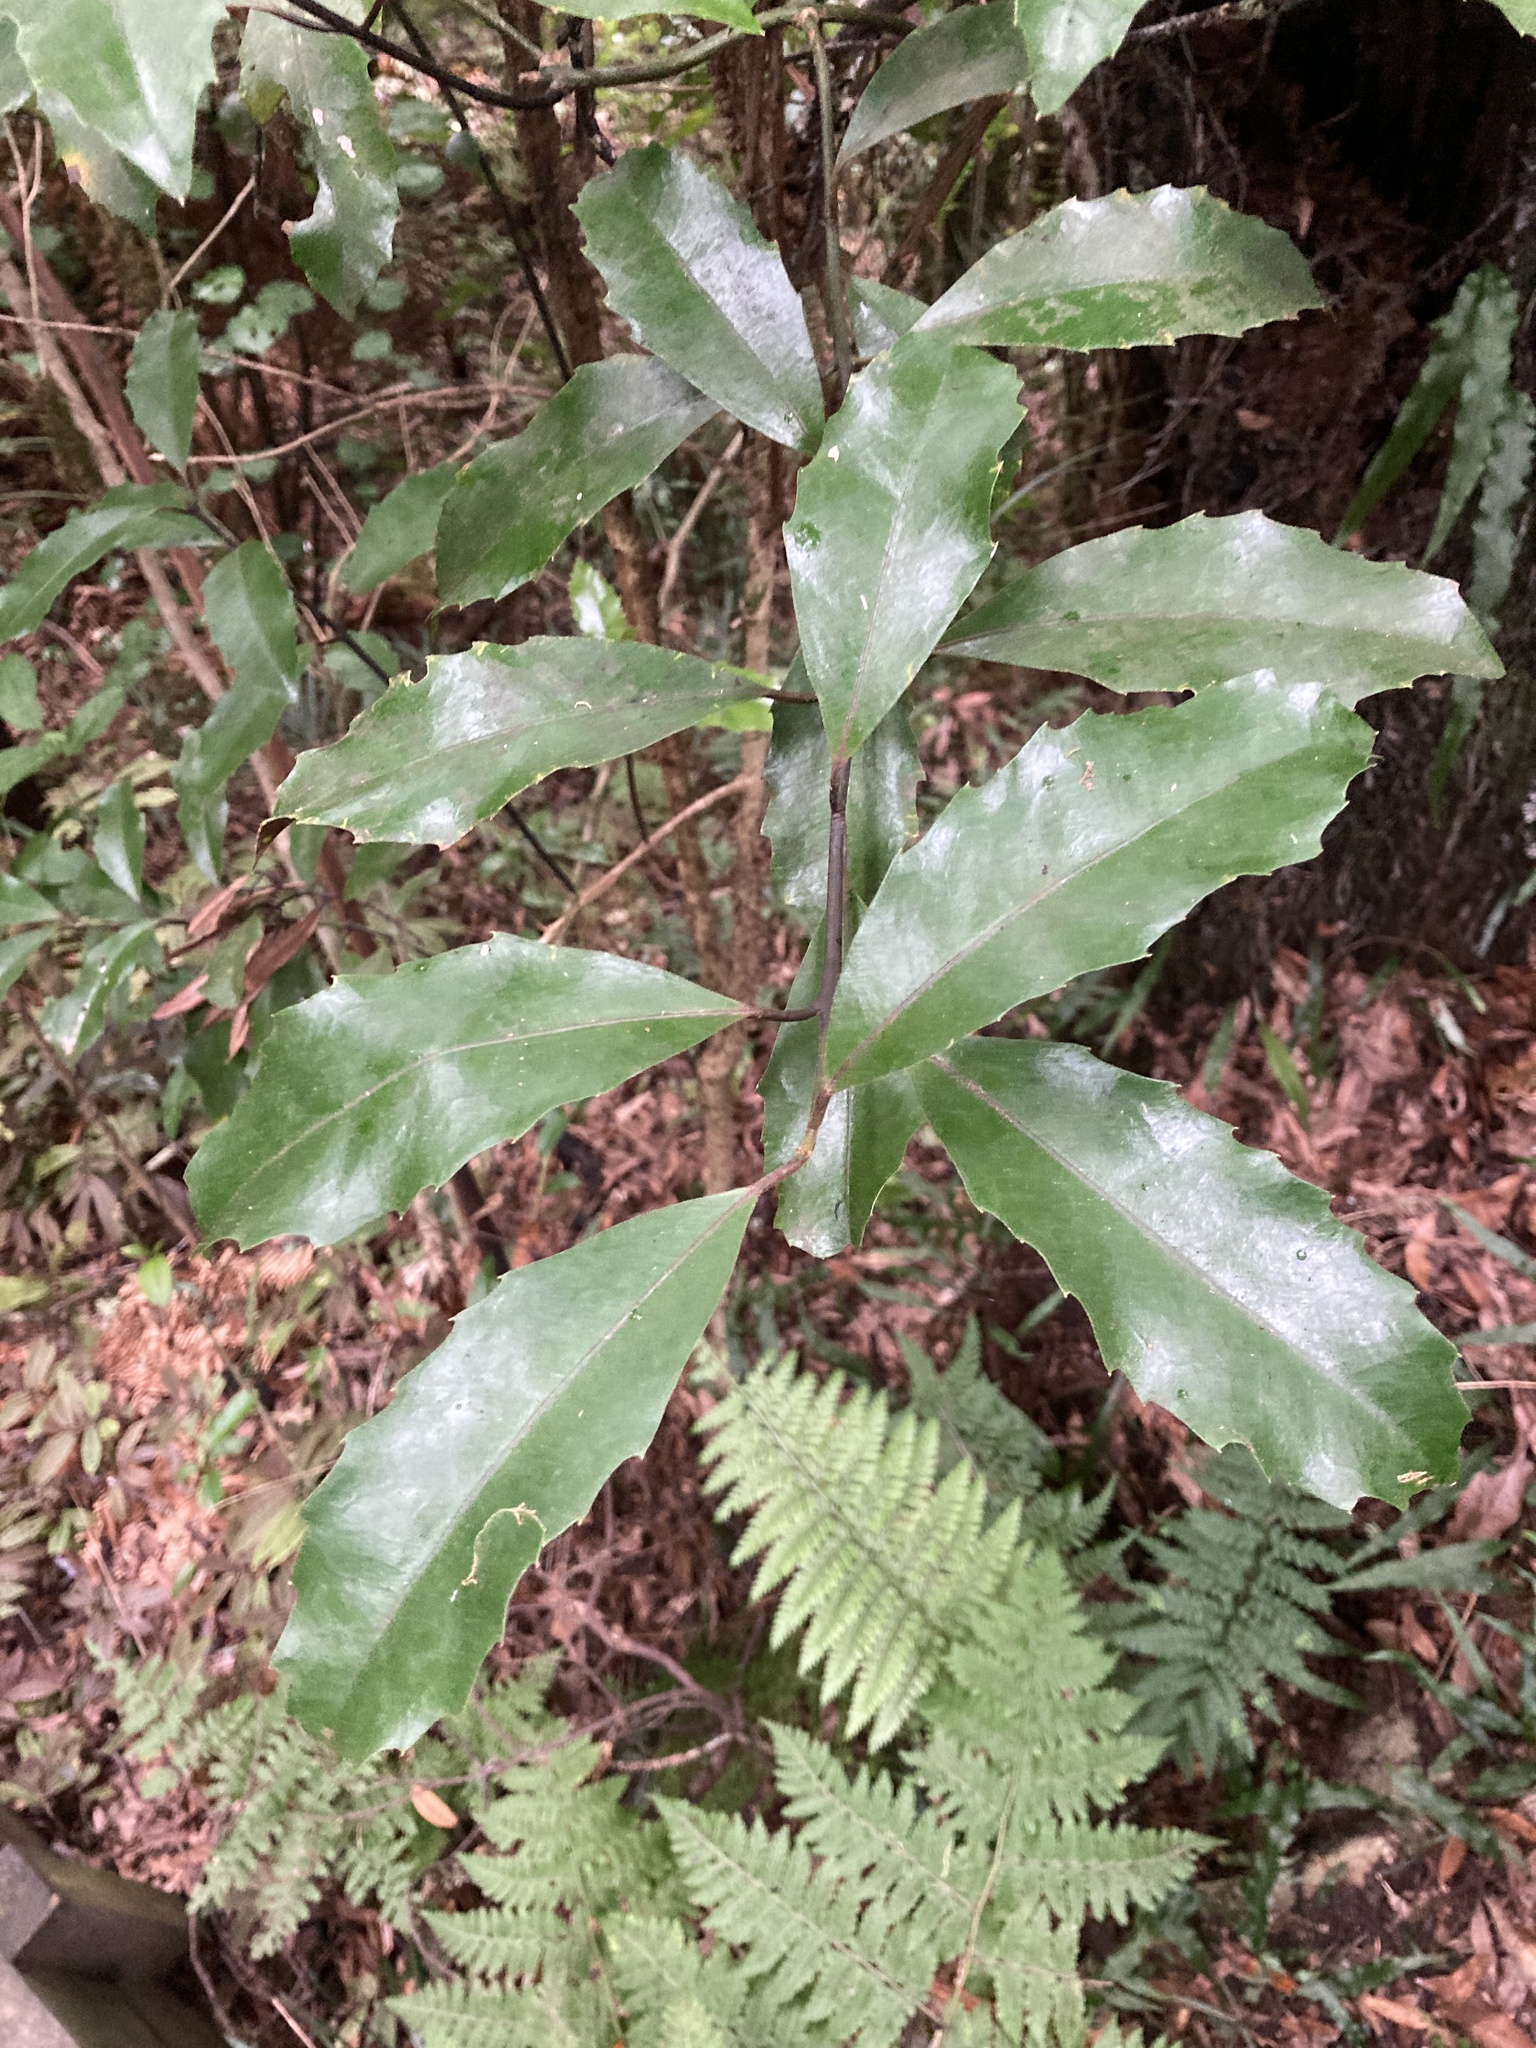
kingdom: Plantae
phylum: Tracheophyta
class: Magnoliopsida
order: Laurales
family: Monimiaceae
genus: Hedycarya
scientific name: Hedycarya arborea
